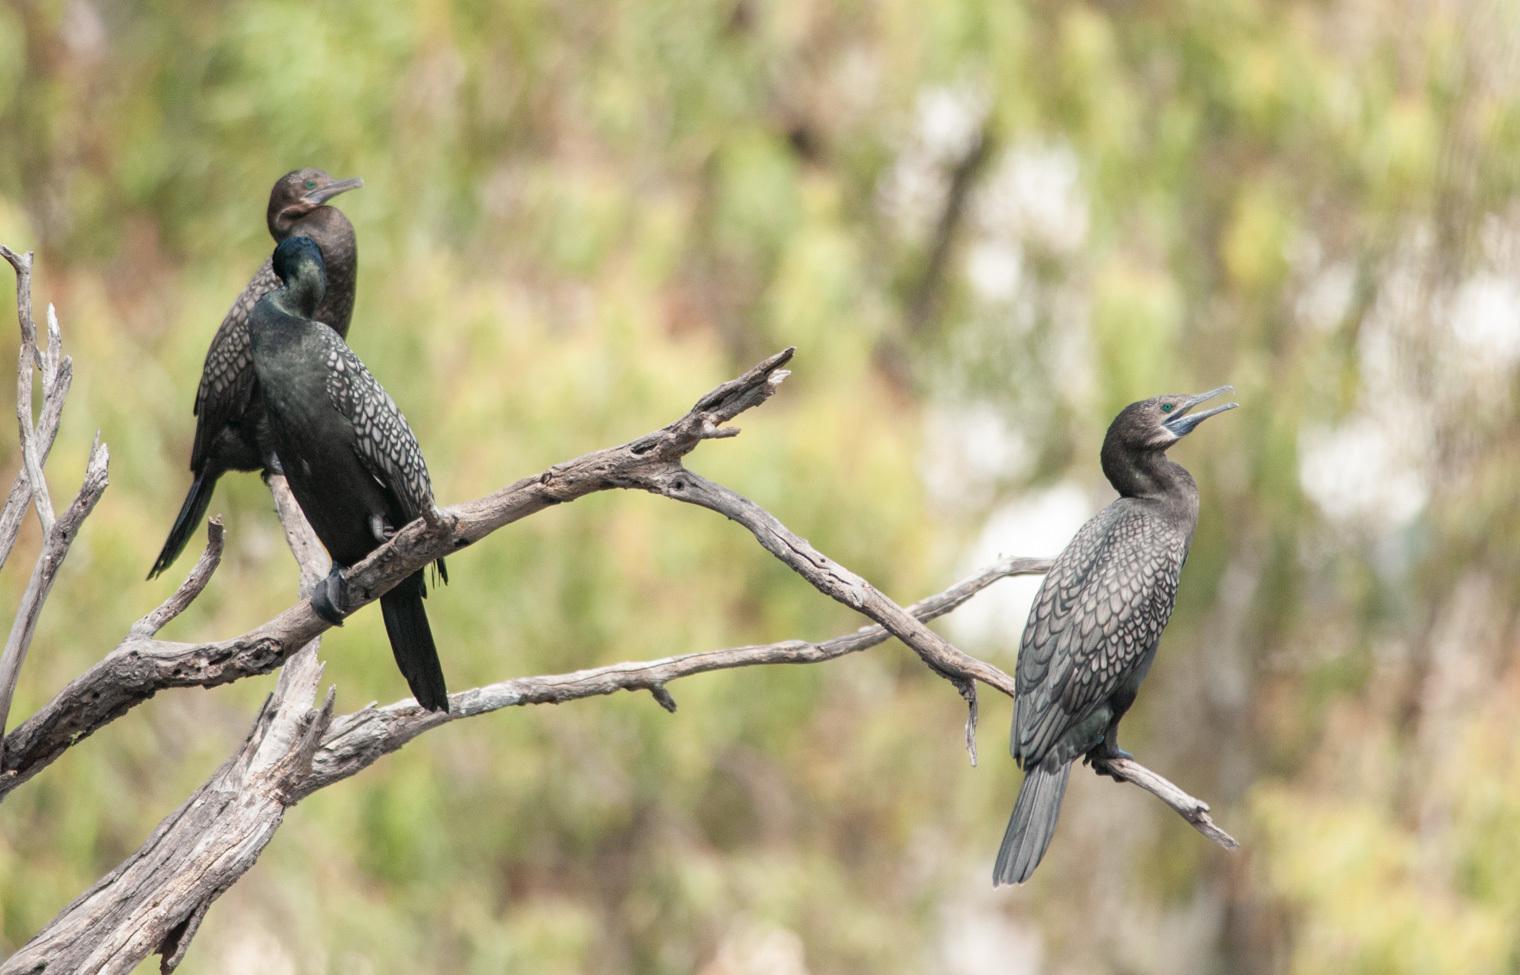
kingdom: Animalia
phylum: Chordata
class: Aves
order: Suliformes
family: Phalacrocoracidae
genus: Phalacrocorax
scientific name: Phalacrocorax sulcirostris
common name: Little black cormorant
